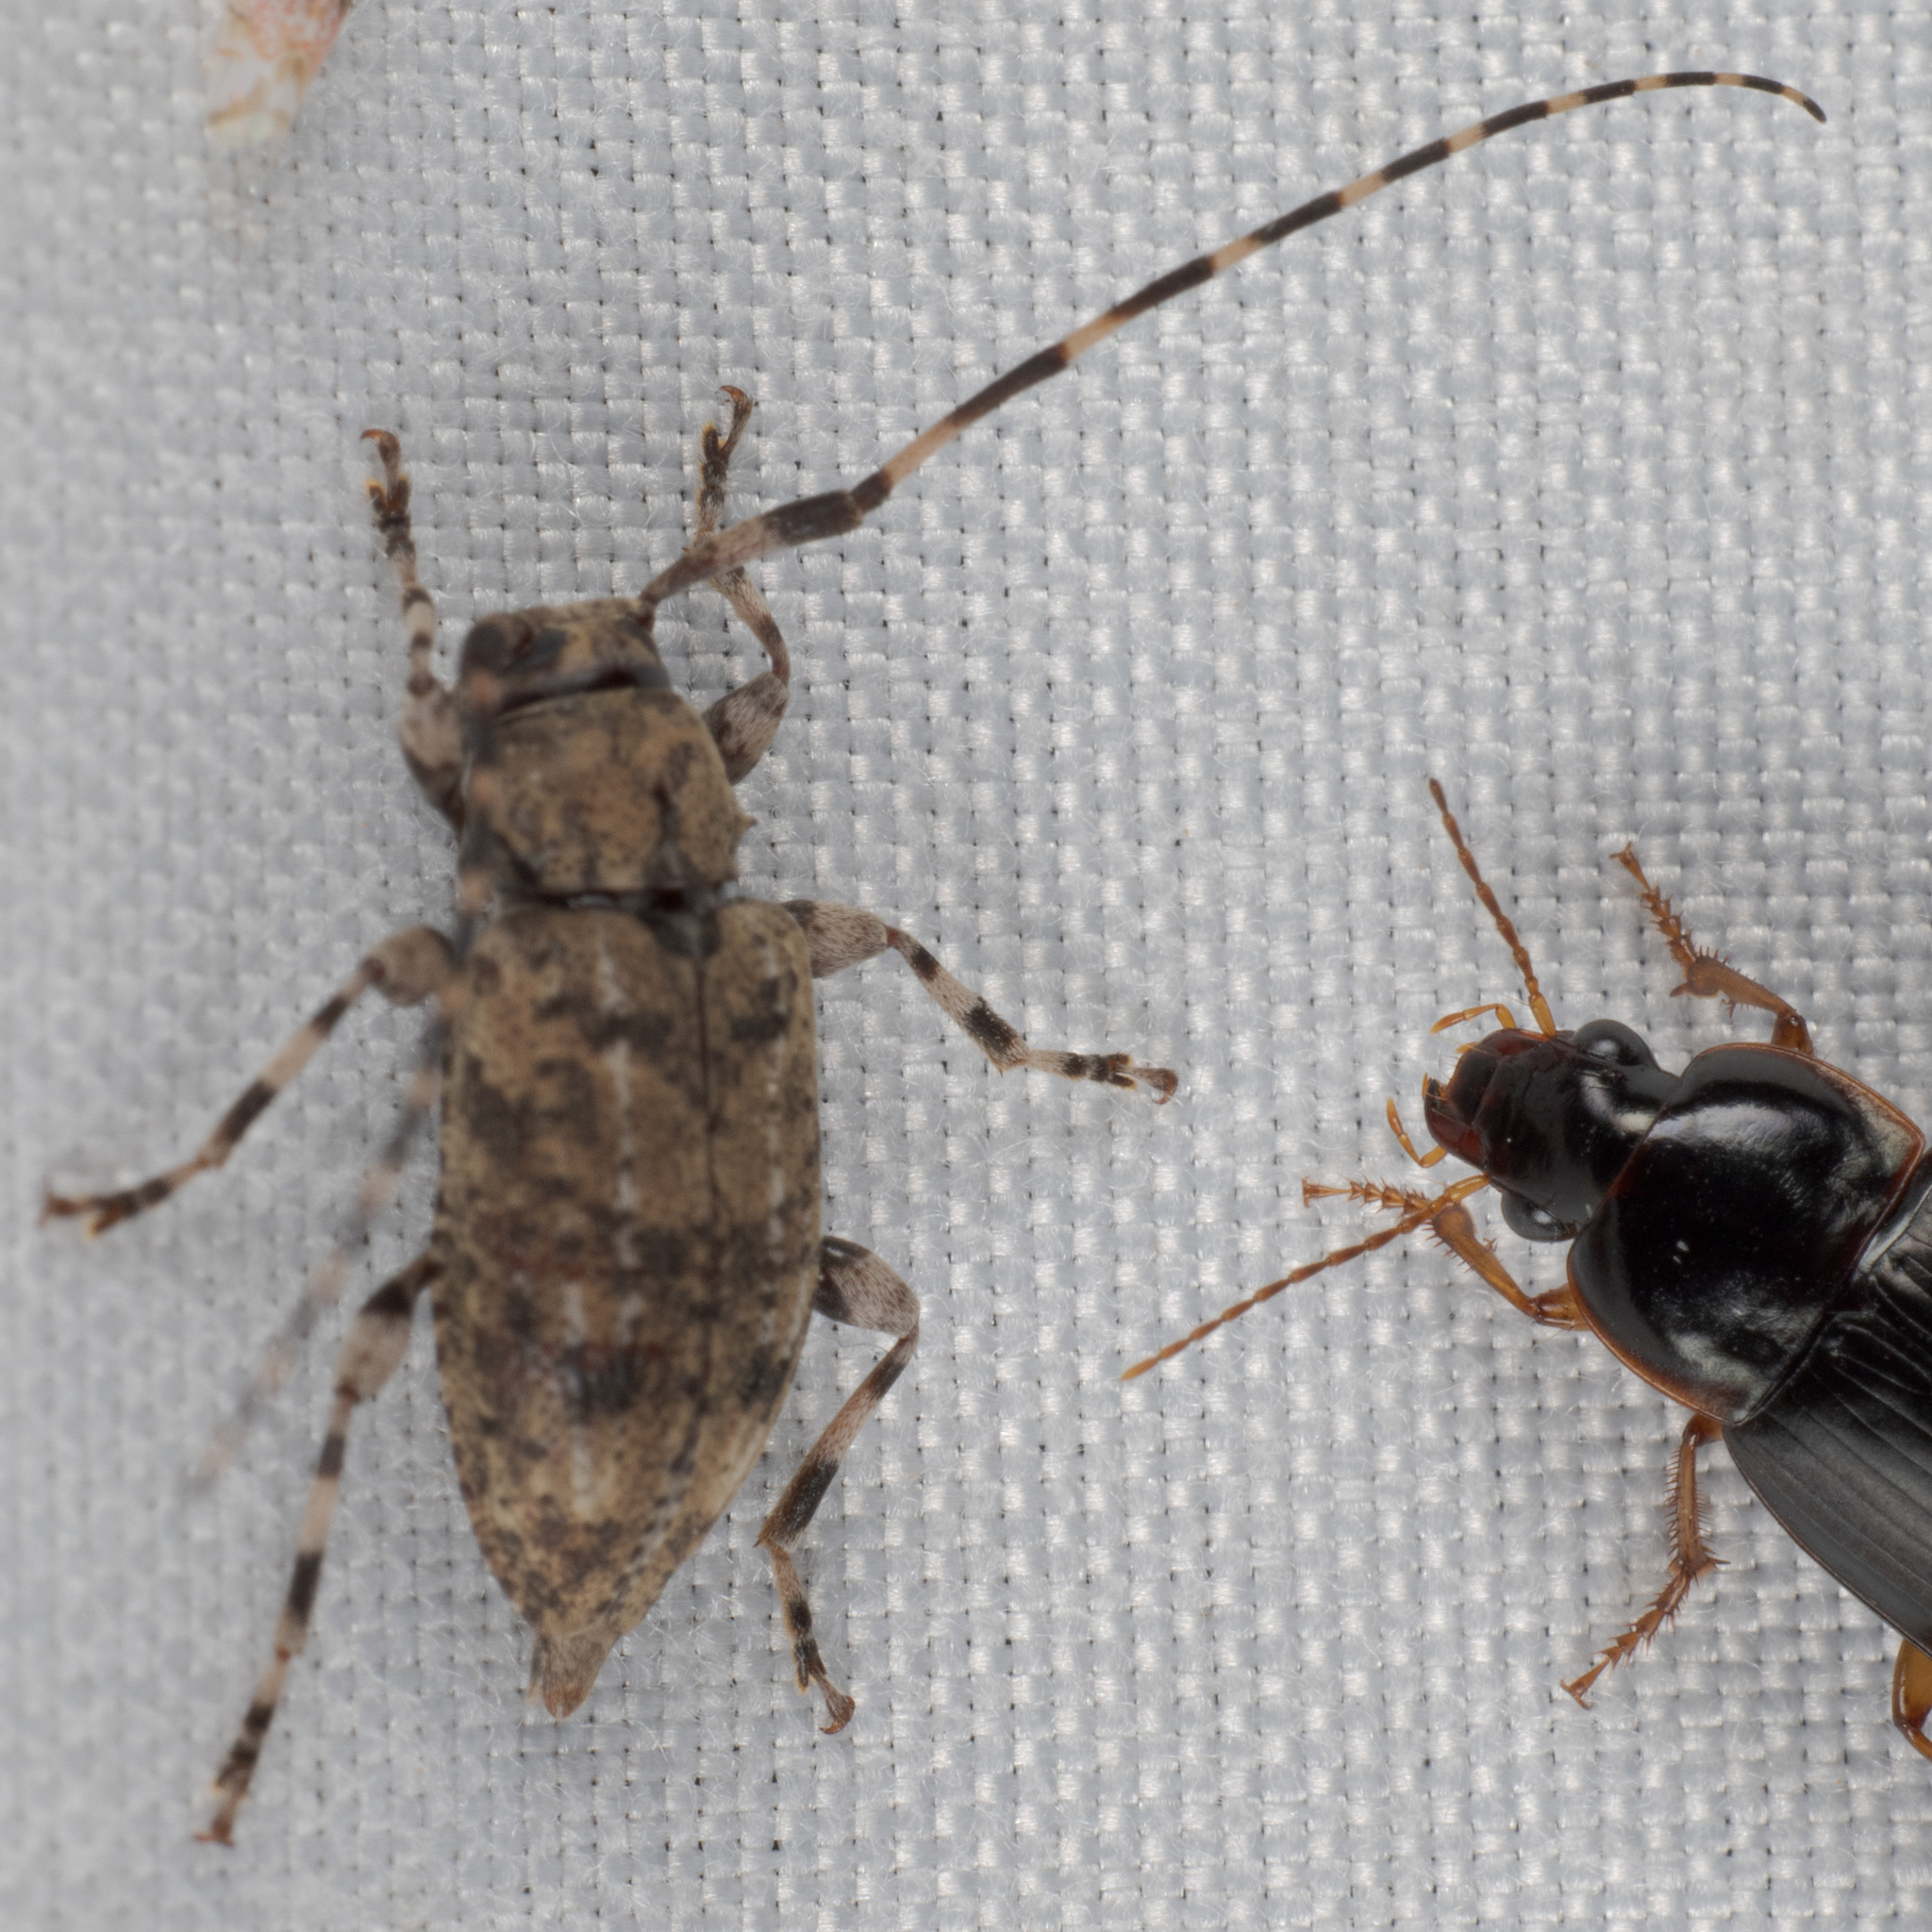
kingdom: Animalia
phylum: Arthropoda
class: Insecta
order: Coleoptera
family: Cerambycidae
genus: Astyleiopus
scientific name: Astyleiopus variegatus
